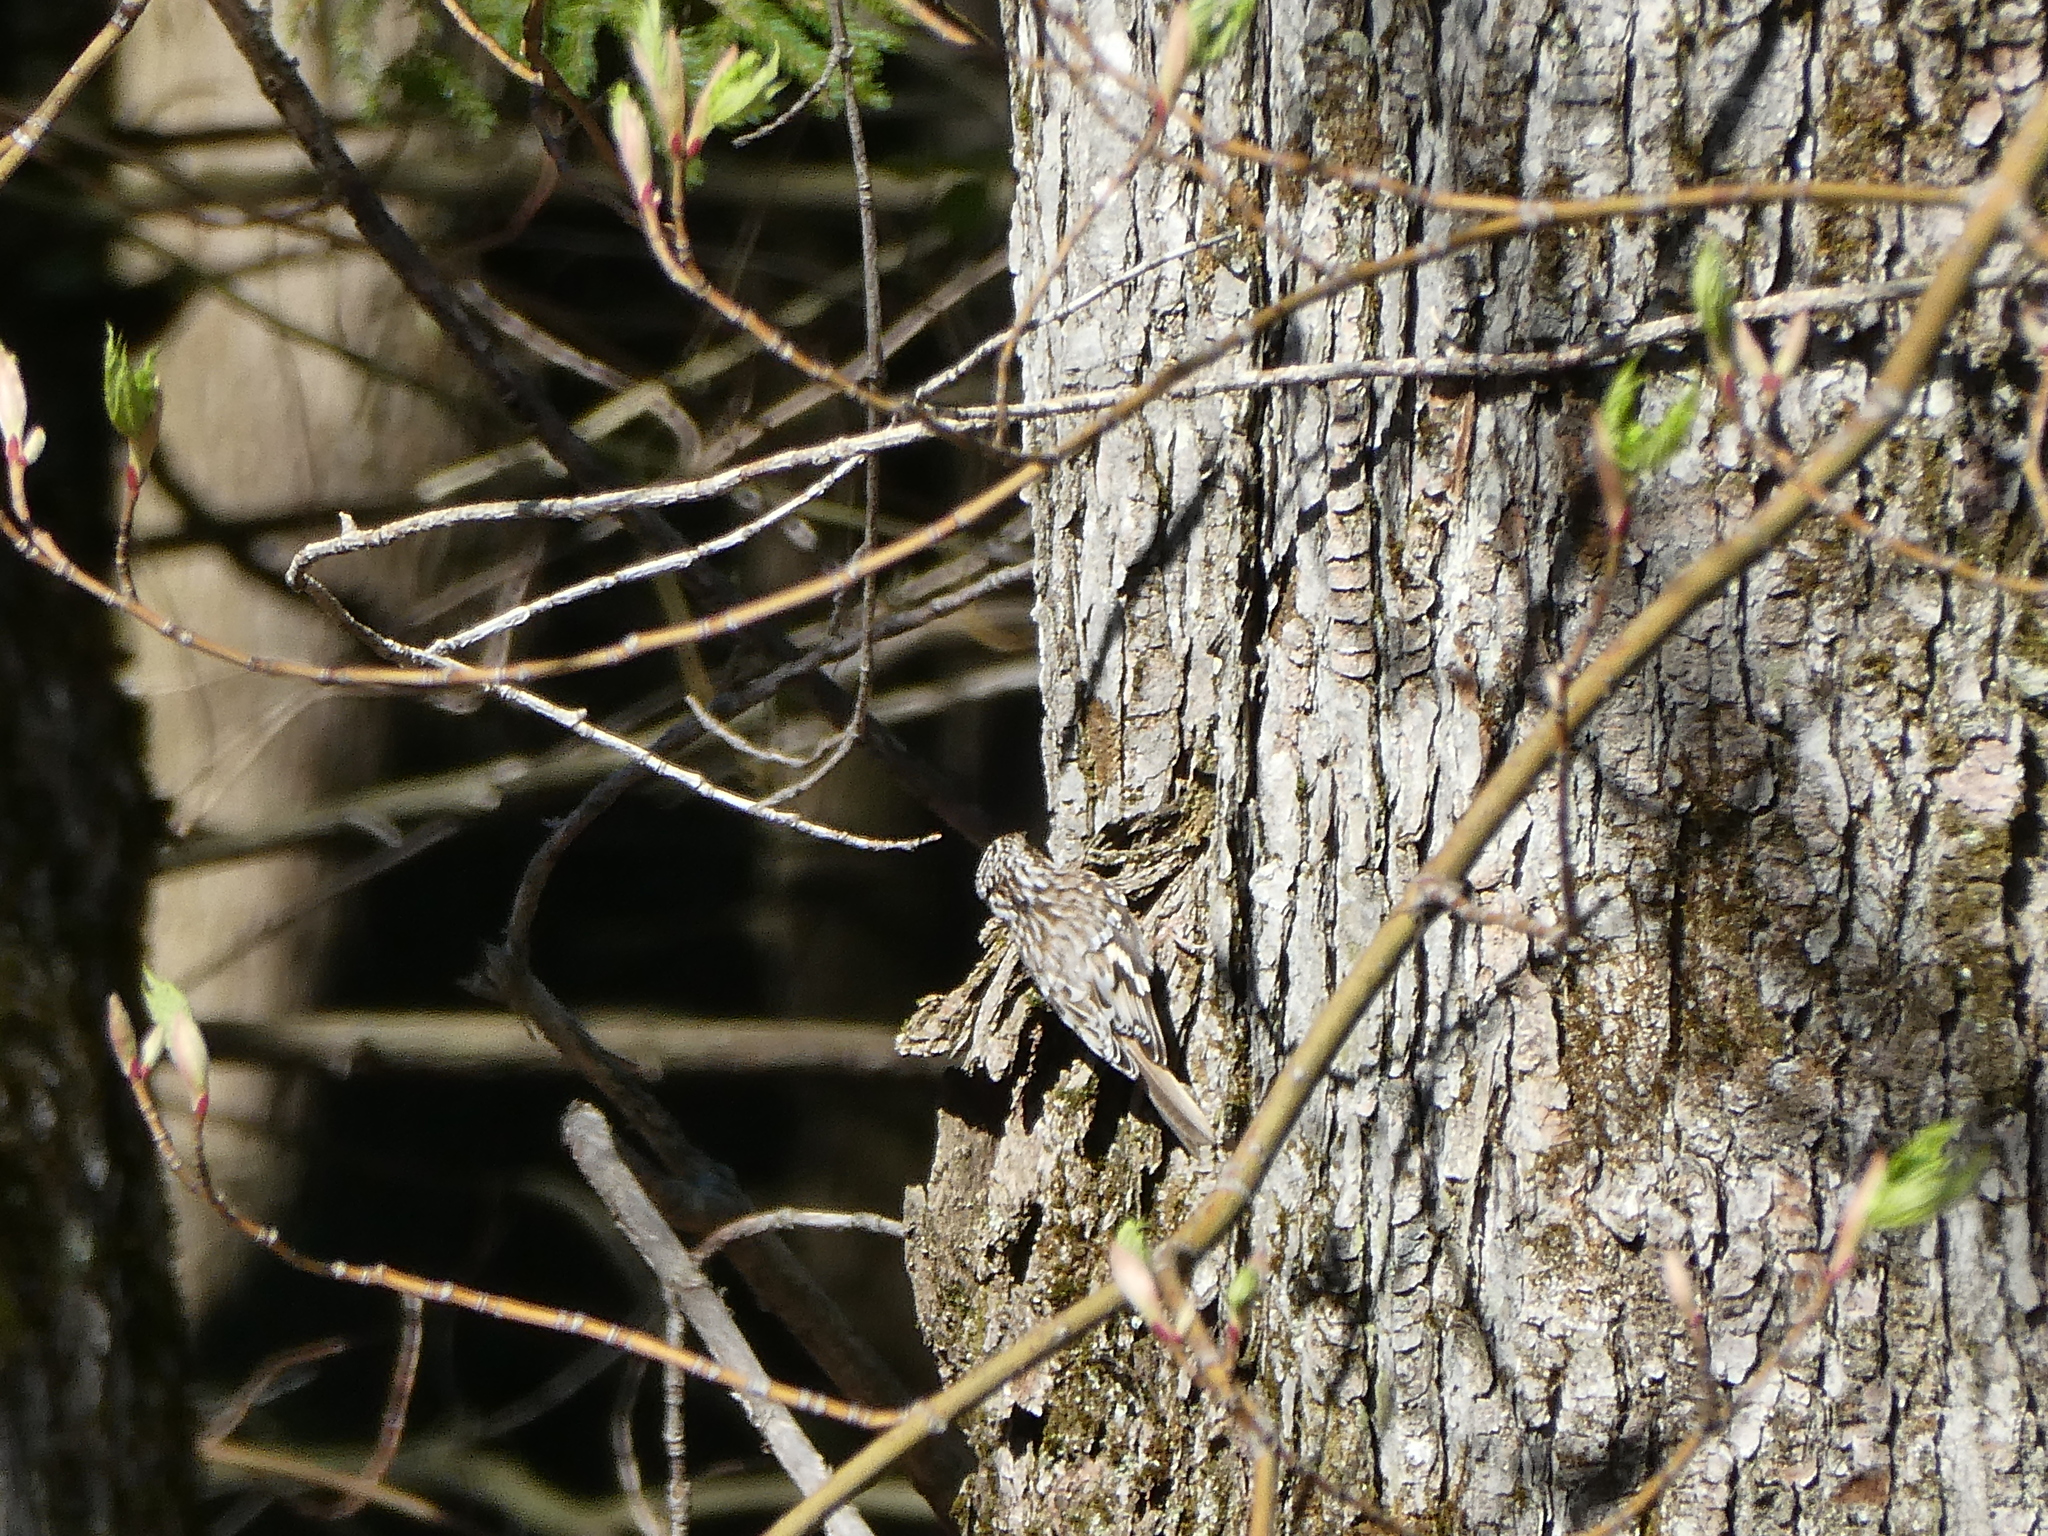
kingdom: Animalia
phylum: Chordata
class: Aves
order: Passeriformes
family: Certhiidae
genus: Certhia
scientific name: Certhia americana
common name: Brown creeper
